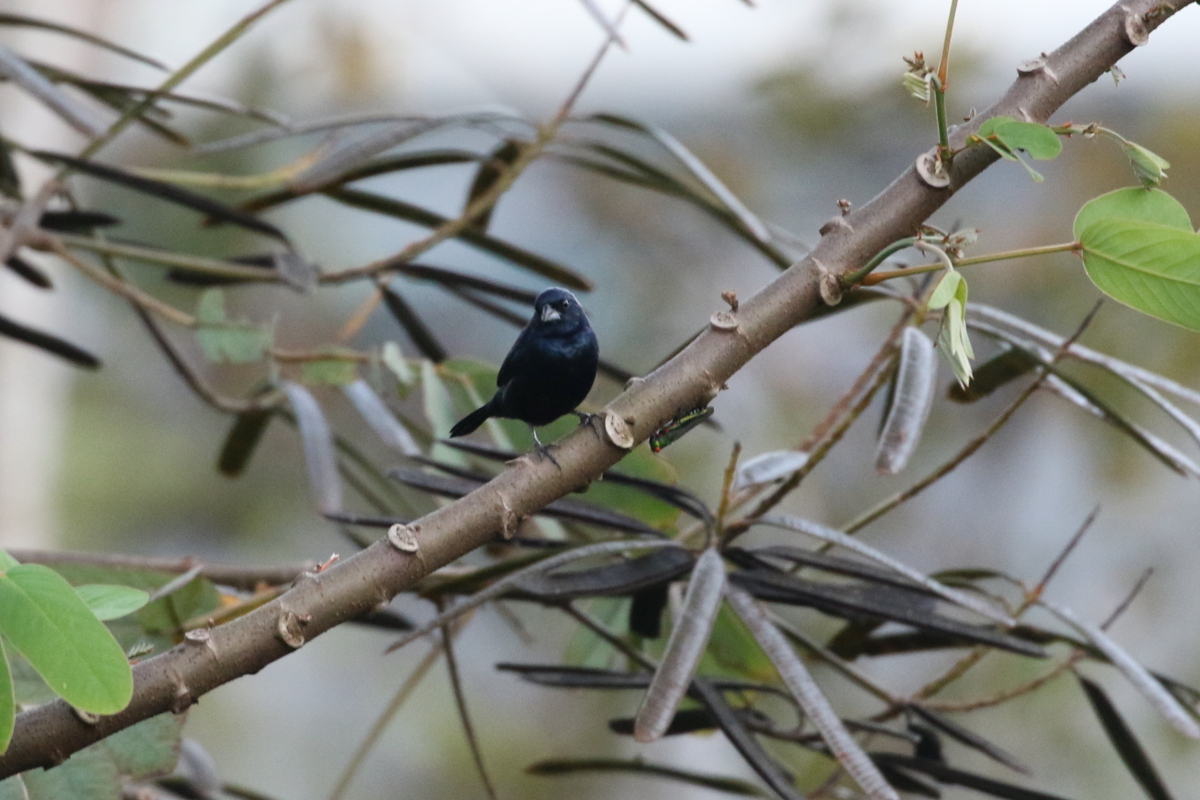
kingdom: Animalia
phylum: Chordata
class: Aves
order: Passeriformes
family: Thraupidae
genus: Volatinia
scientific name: Volatinia jacarina
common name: Blue-black grassquit
